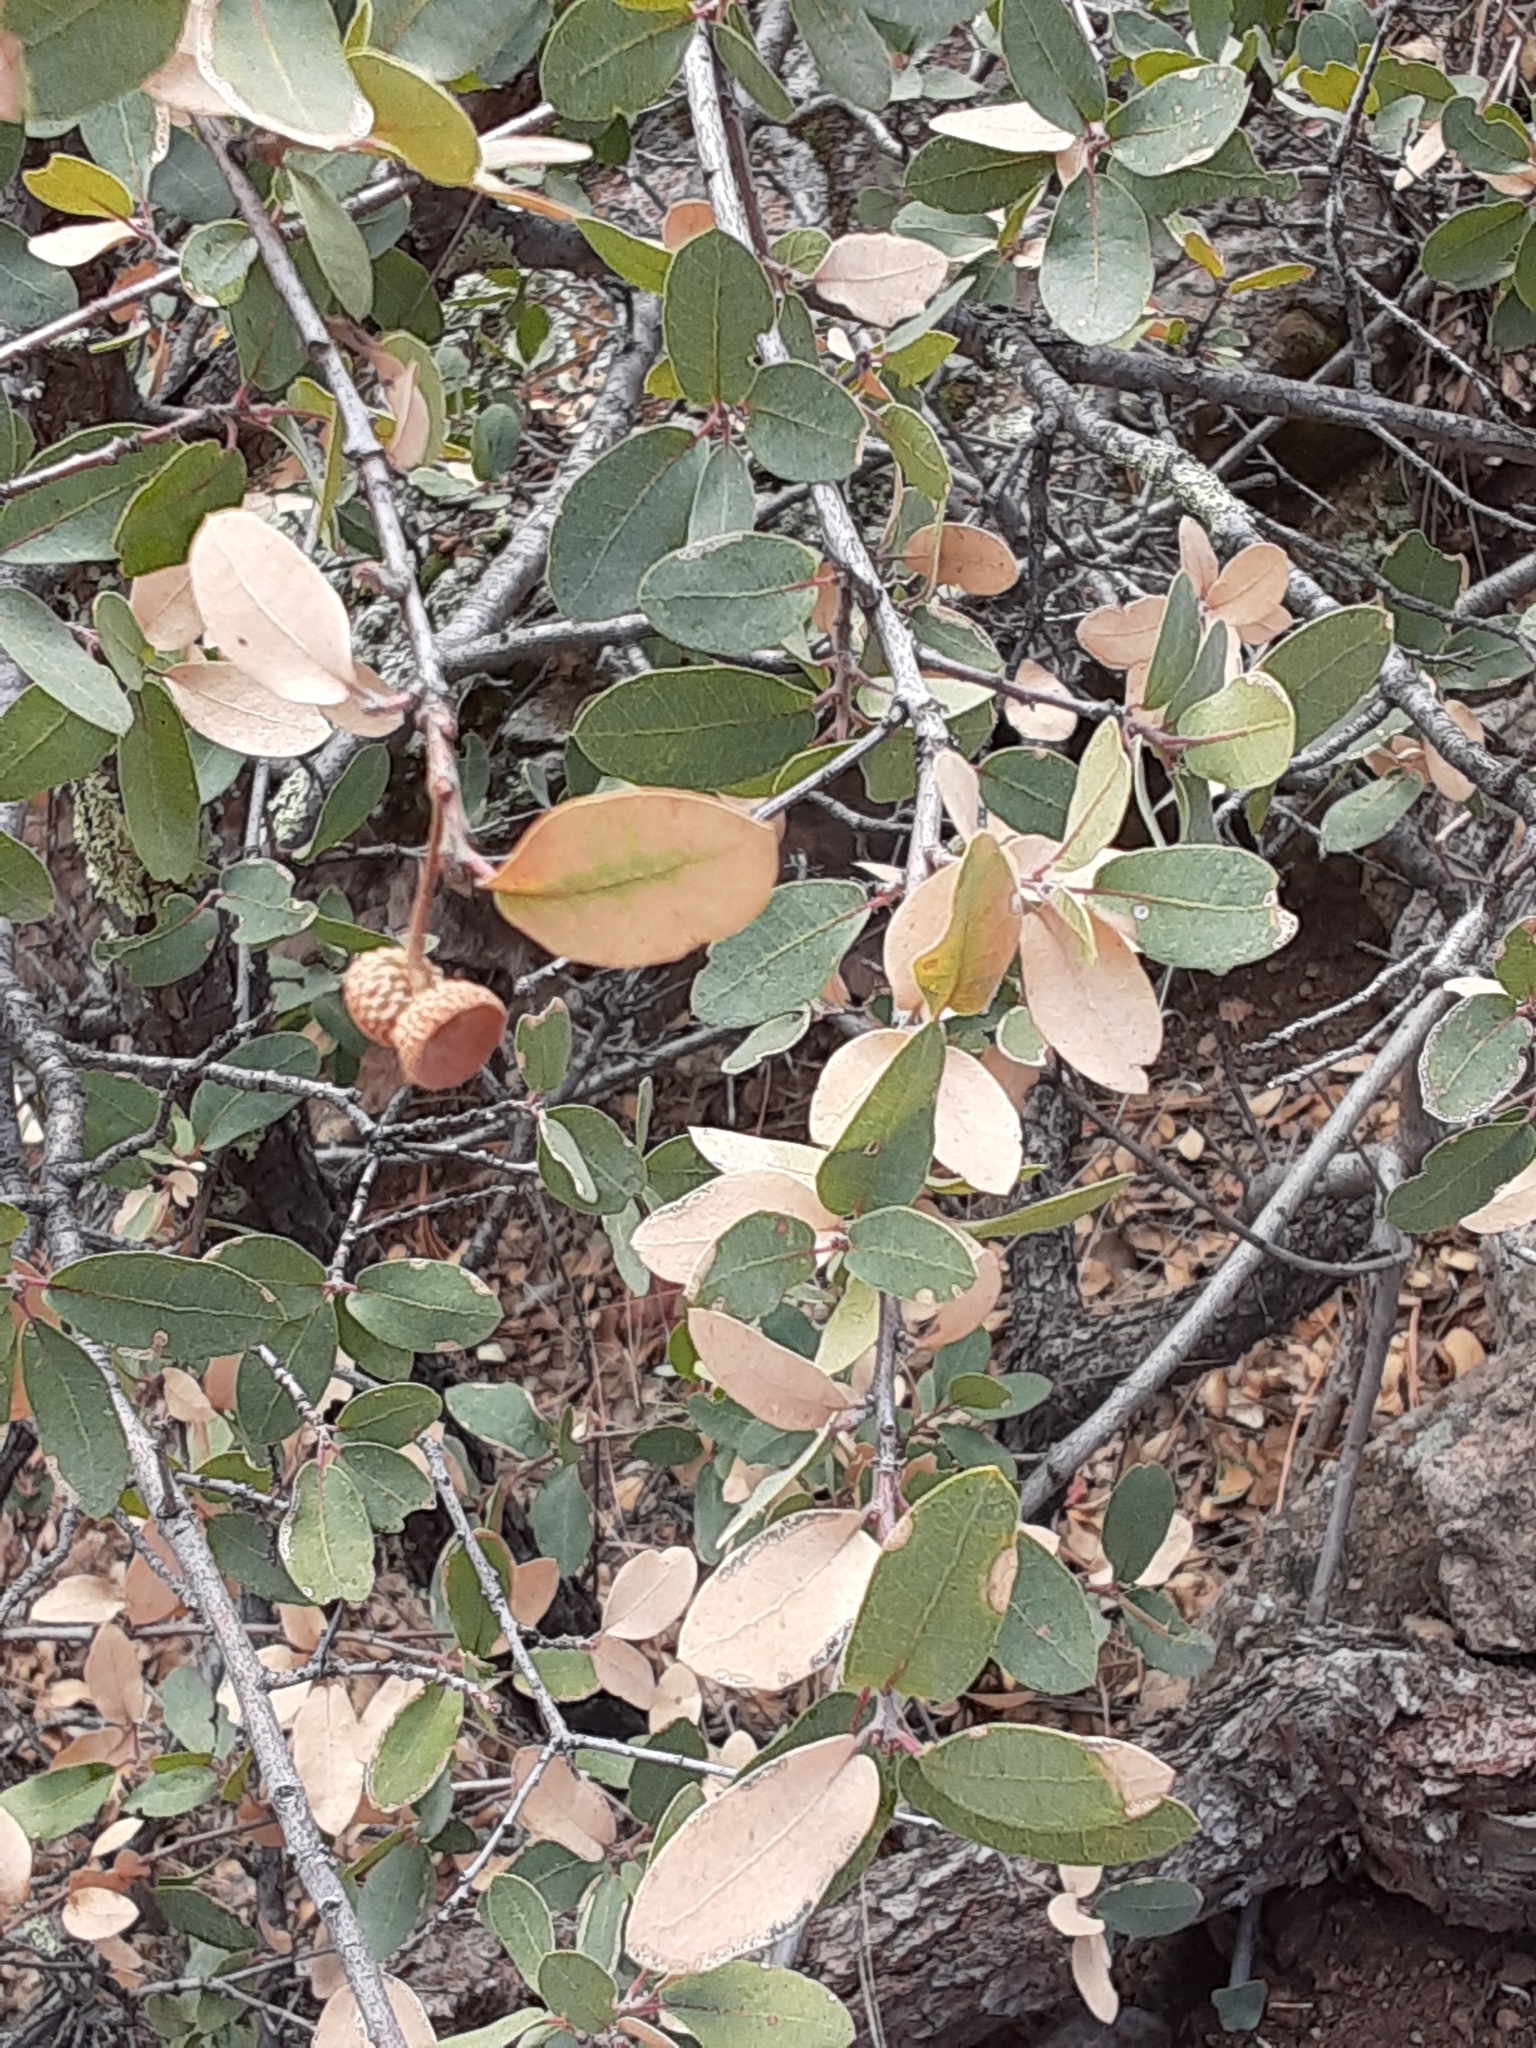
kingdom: Plantae
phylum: Tracheophyta
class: Magnoliopsida
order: Fagales
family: Fagaceae
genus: Quercus
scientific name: Quercus grisea
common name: Gray oak
